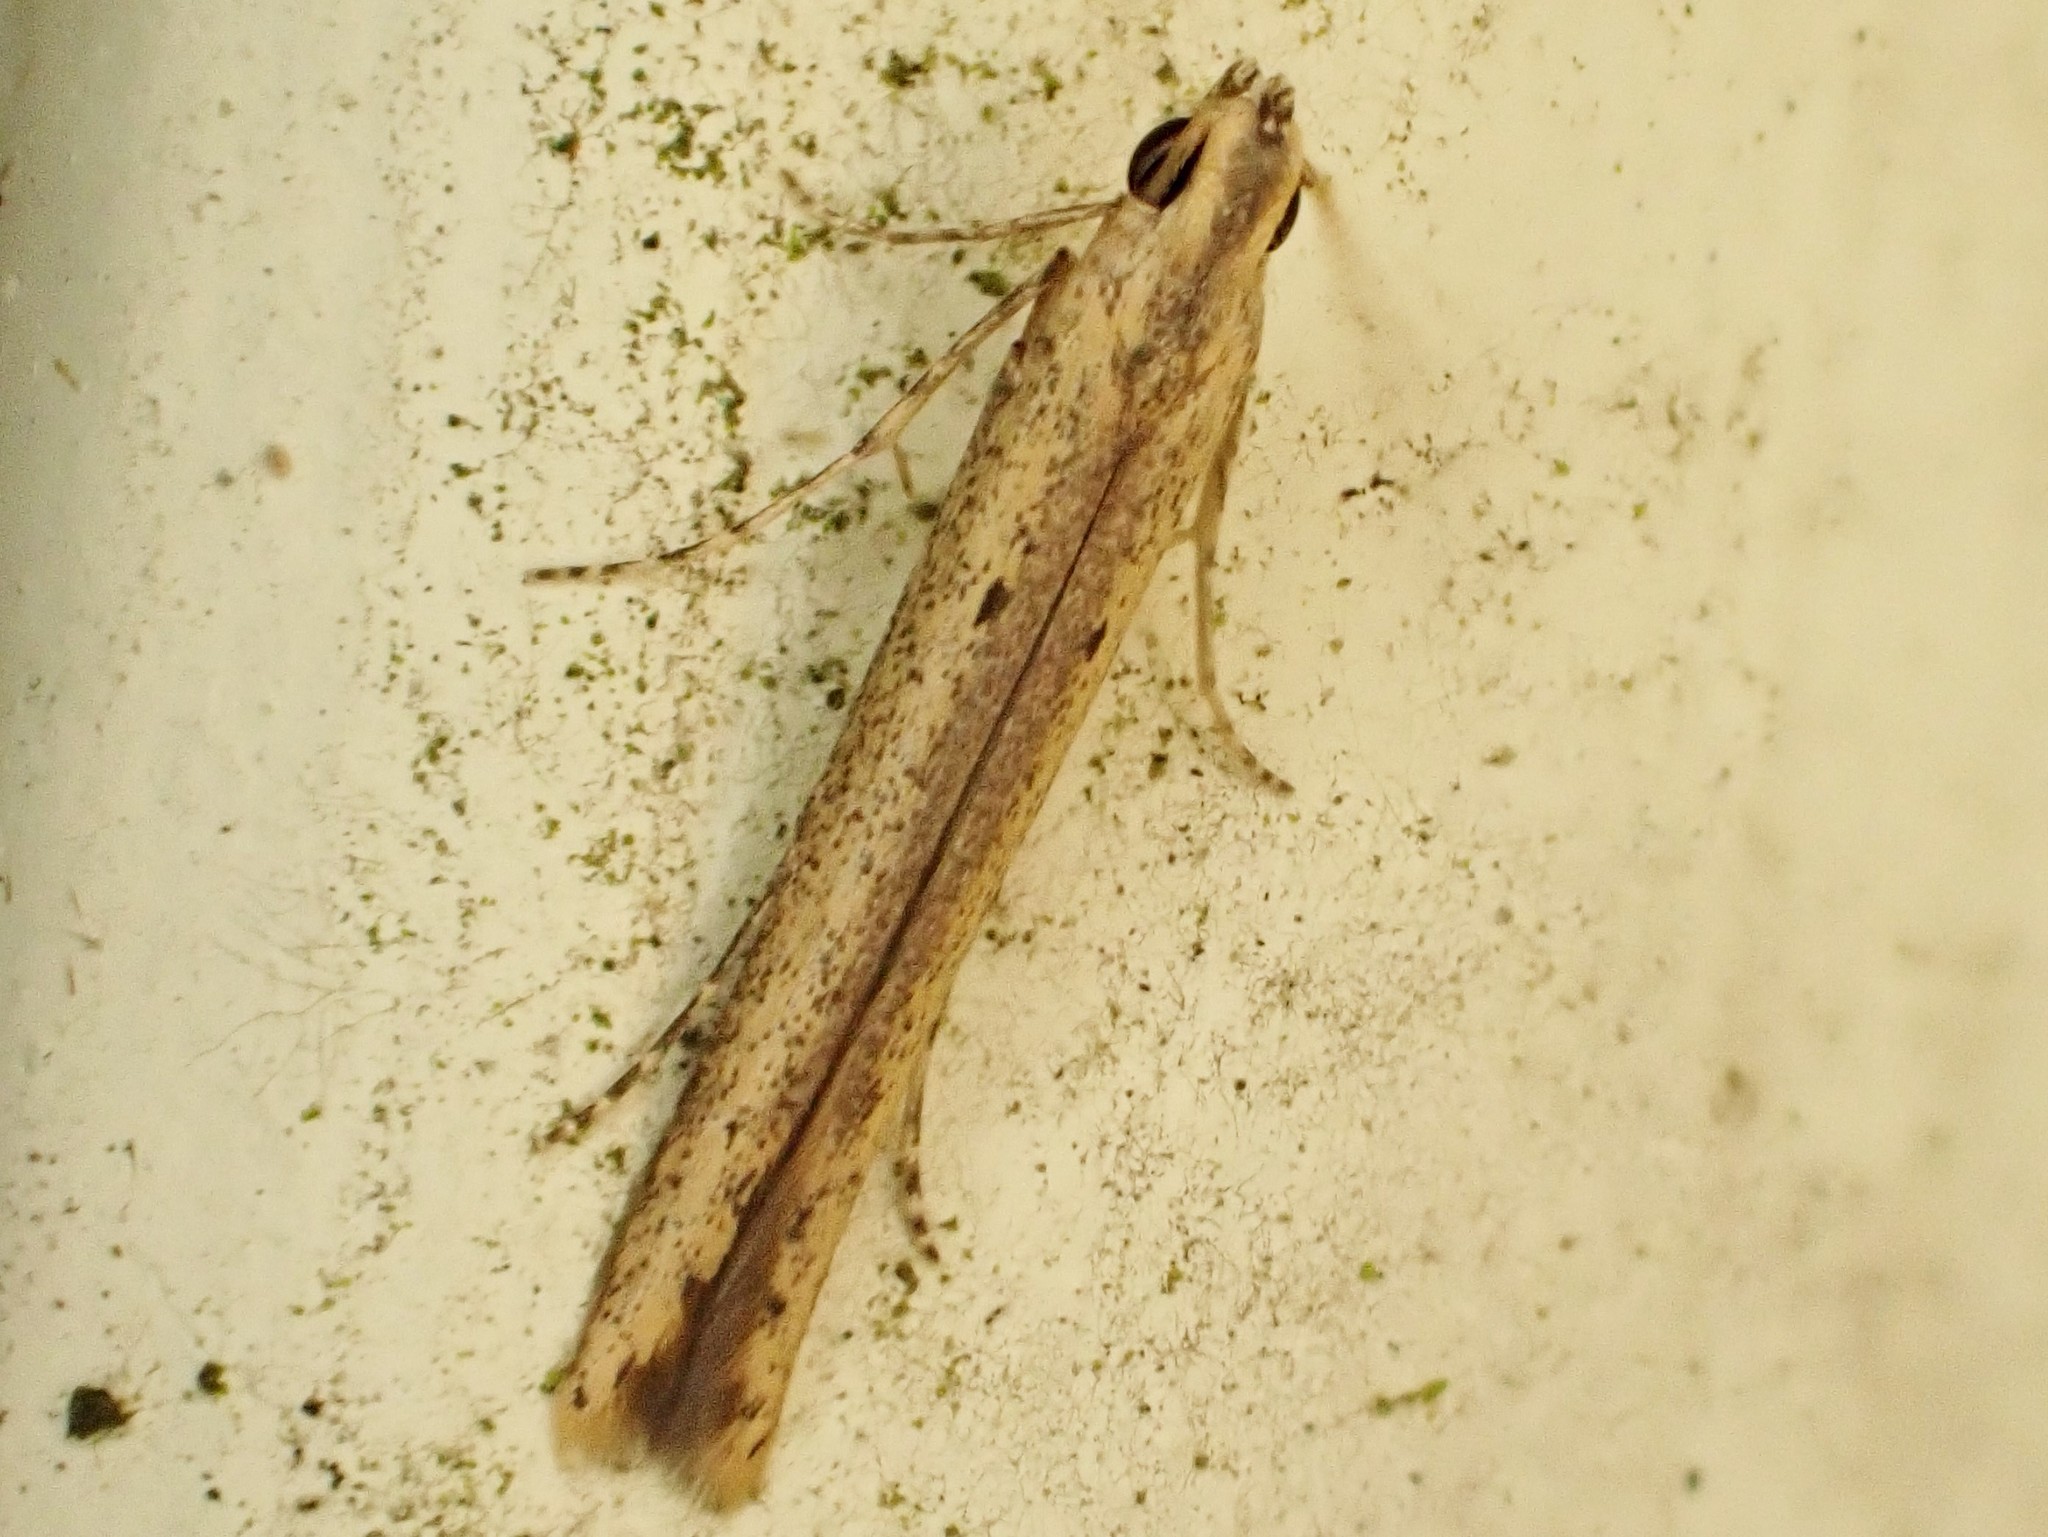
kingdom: Animalia
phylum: Arthropoda
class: Insecta
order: Lepidoptera
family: Batrachedridae
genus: Batrachedra
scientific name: Batrachedra
